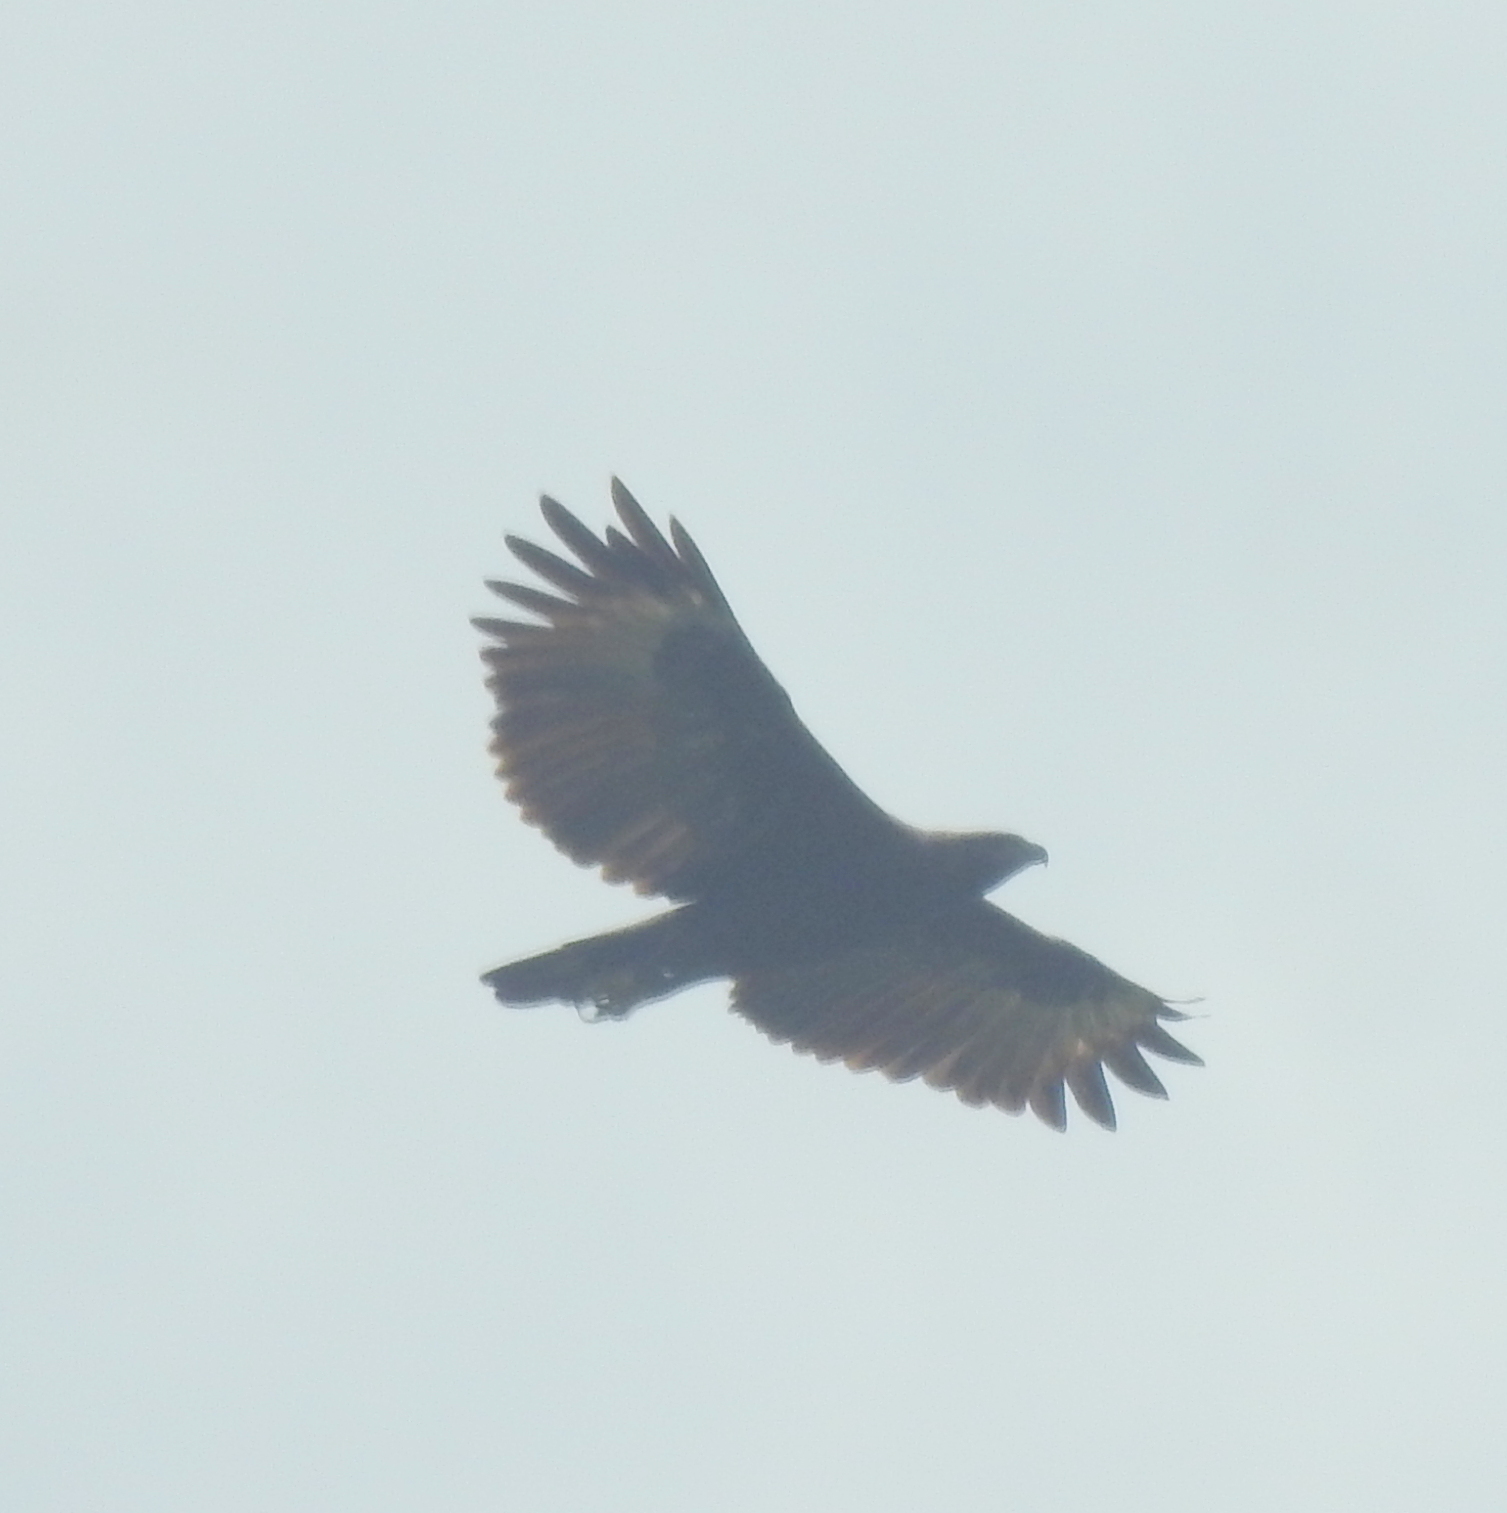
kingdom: Animalia
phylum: Chordata
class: Aves
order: Accipitriformes
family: Accipitridae
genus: Nisaetus
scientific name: Nisaetus cirrhatus
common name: Changeable hawk-eagle
